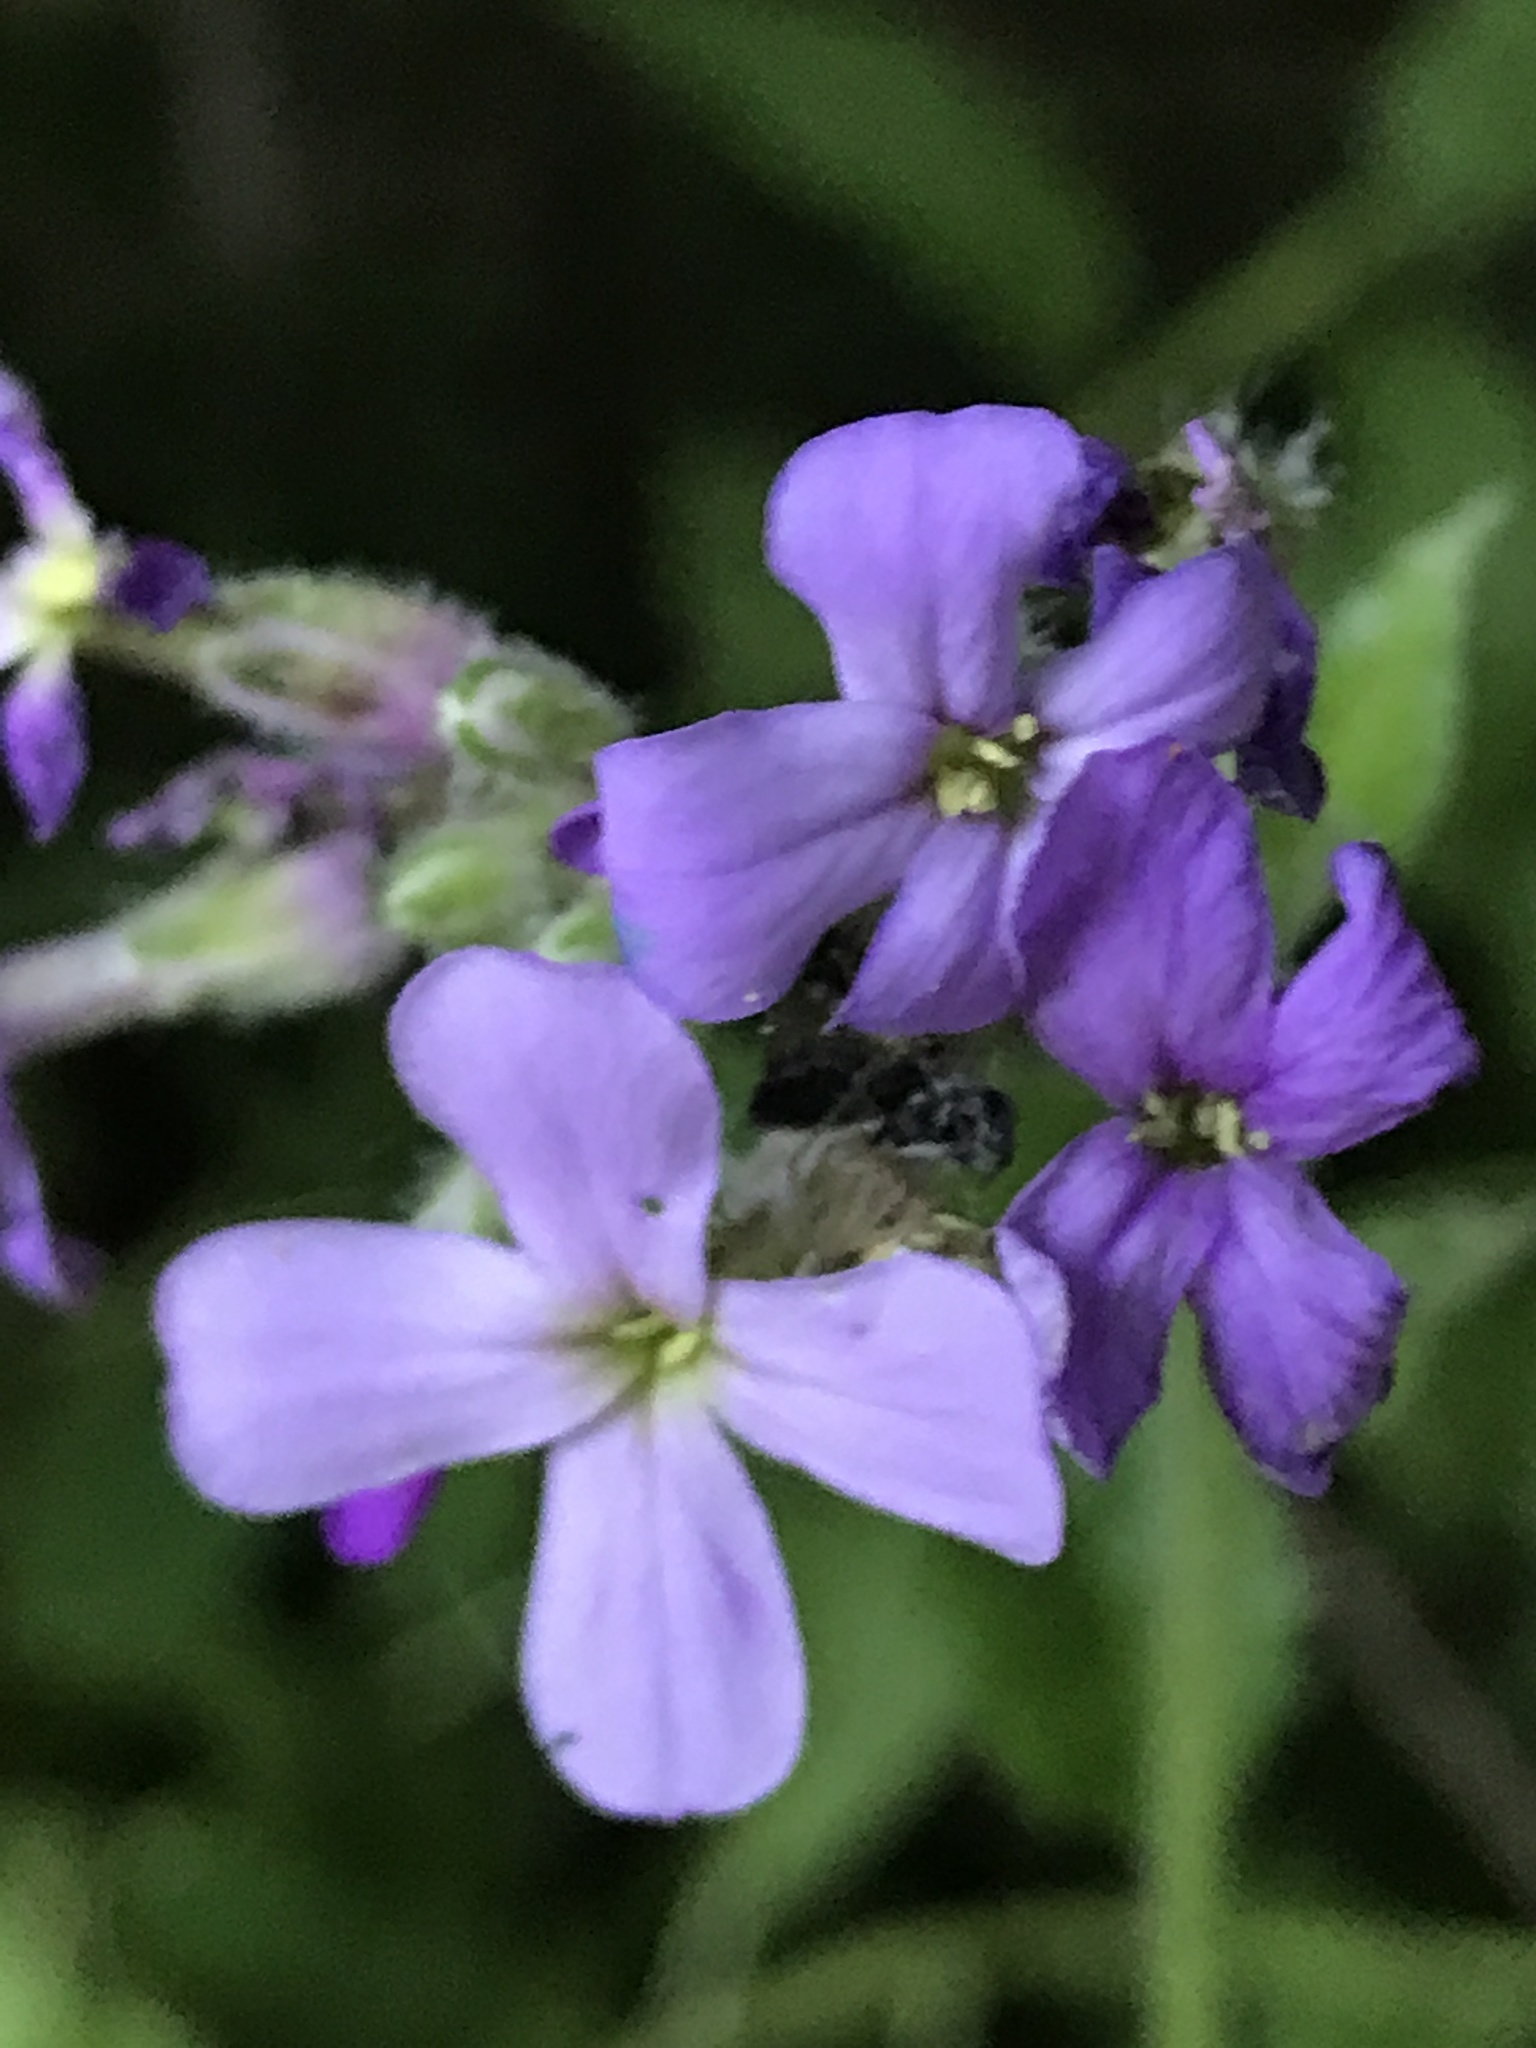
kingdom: Plantae
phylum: Tracheophyta
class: Magnoliopsida
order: Brassicales
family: Brassicaceae
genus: Hesperis
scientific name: Hesperis matronalis
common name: Dame's-violet
